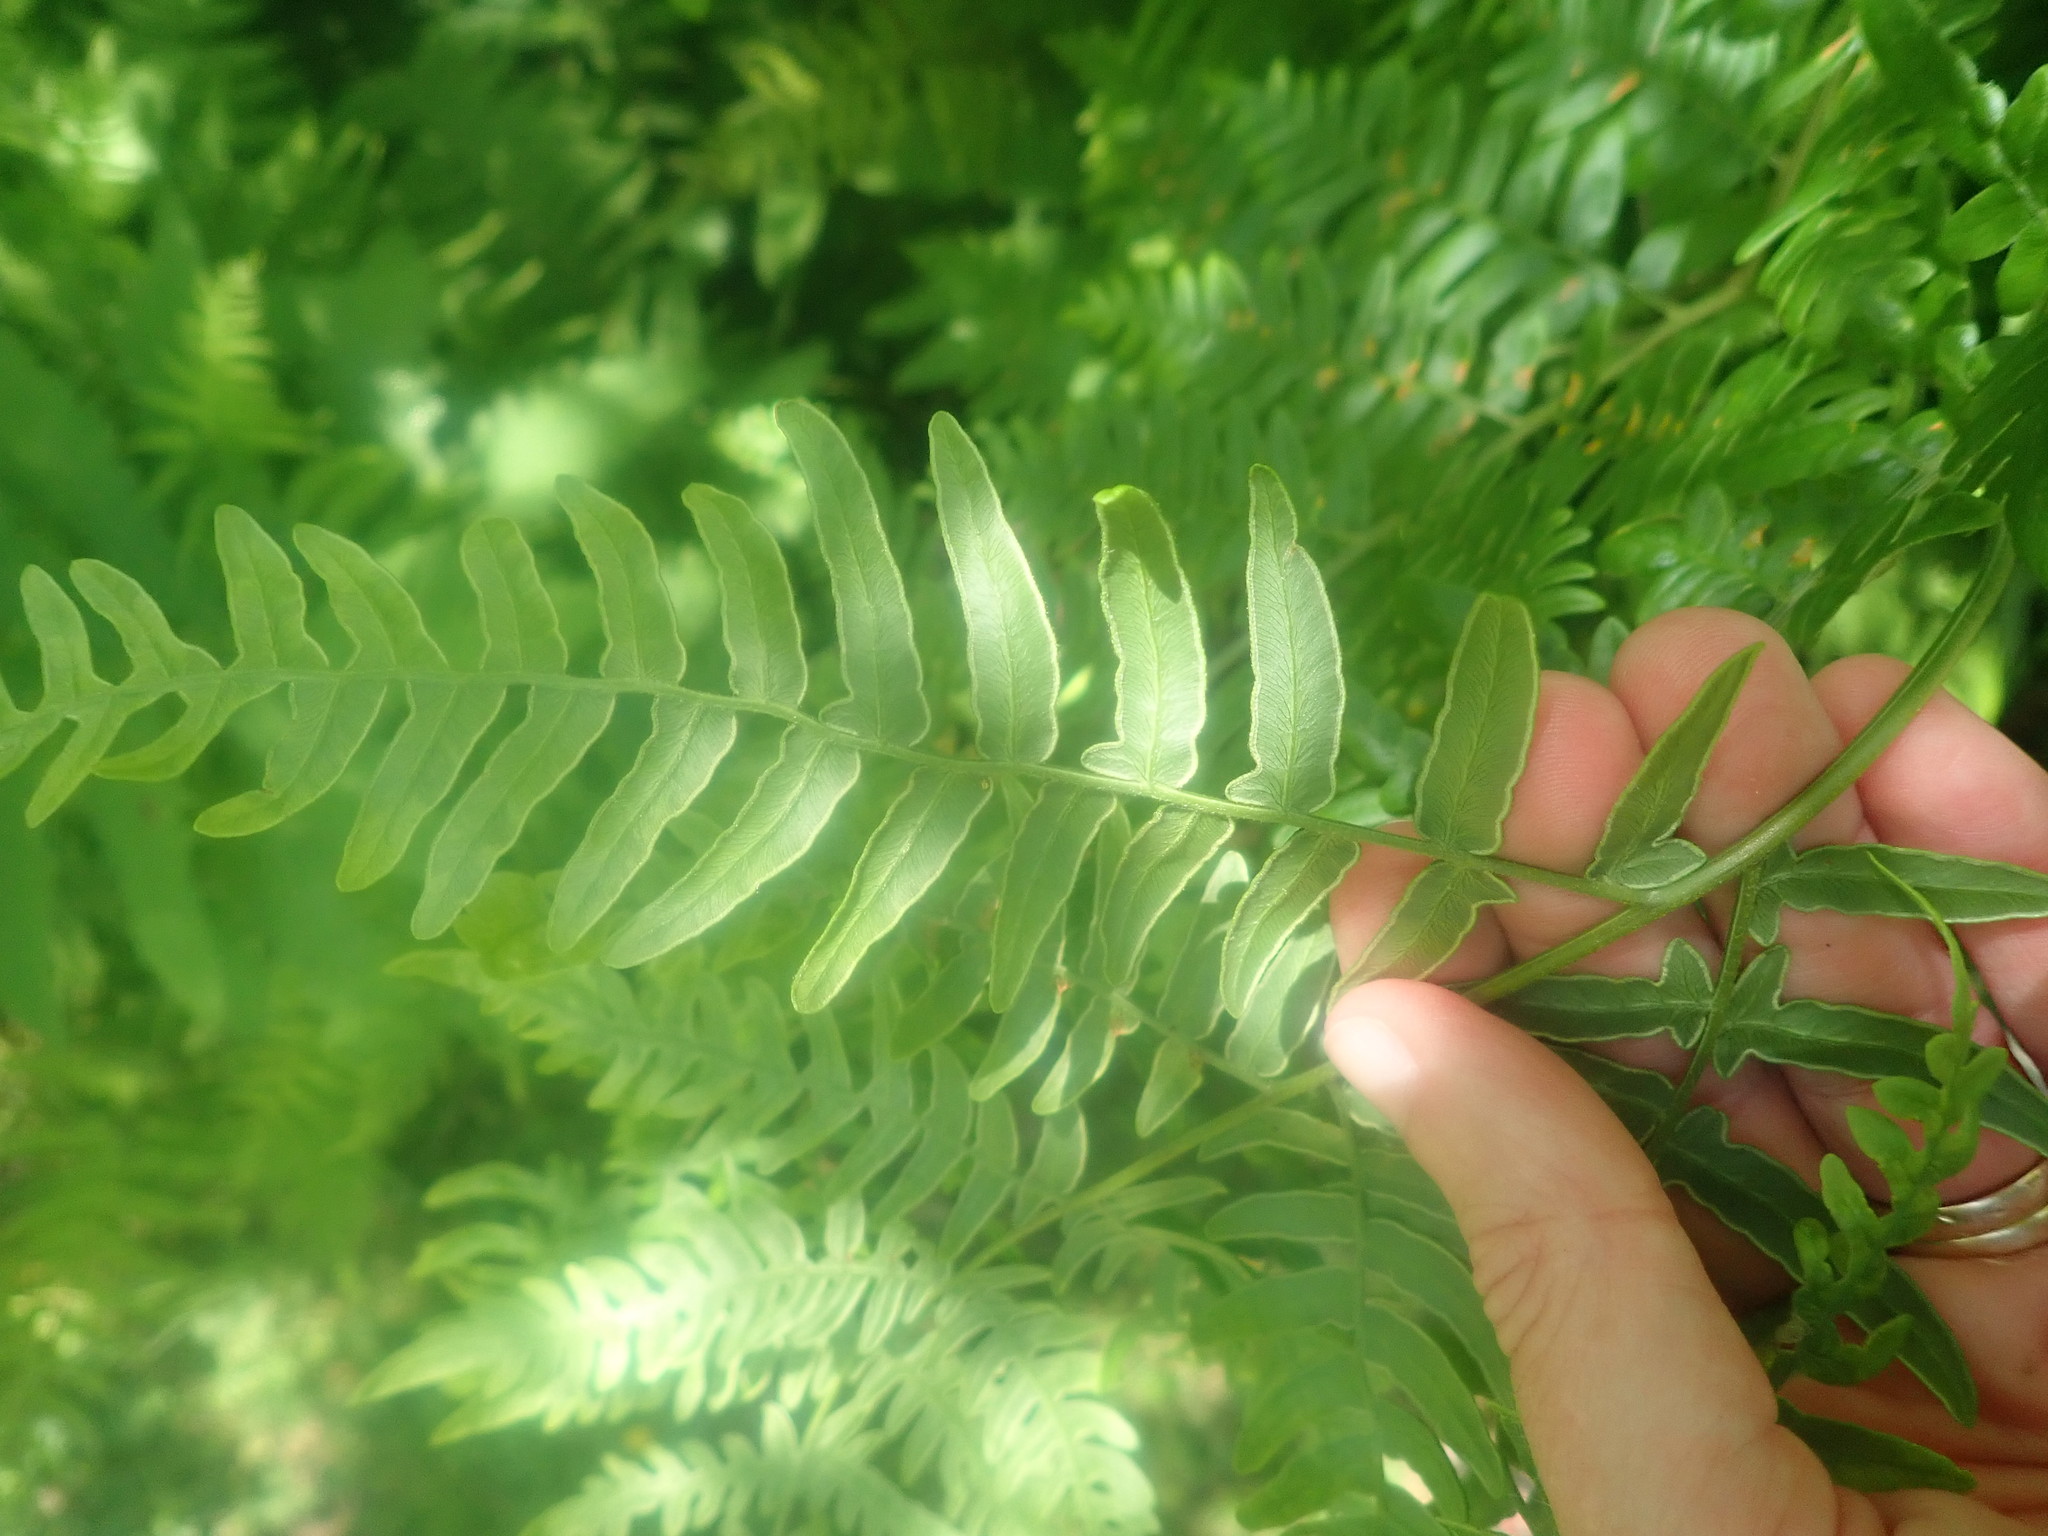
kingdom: Plantae
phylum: Tracheophyta
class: Polypodiopsida
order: Polypodiales
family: Dennstaedtiaceae
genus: Pteridium
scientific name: Pteridium aquilinum
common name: Bracken
